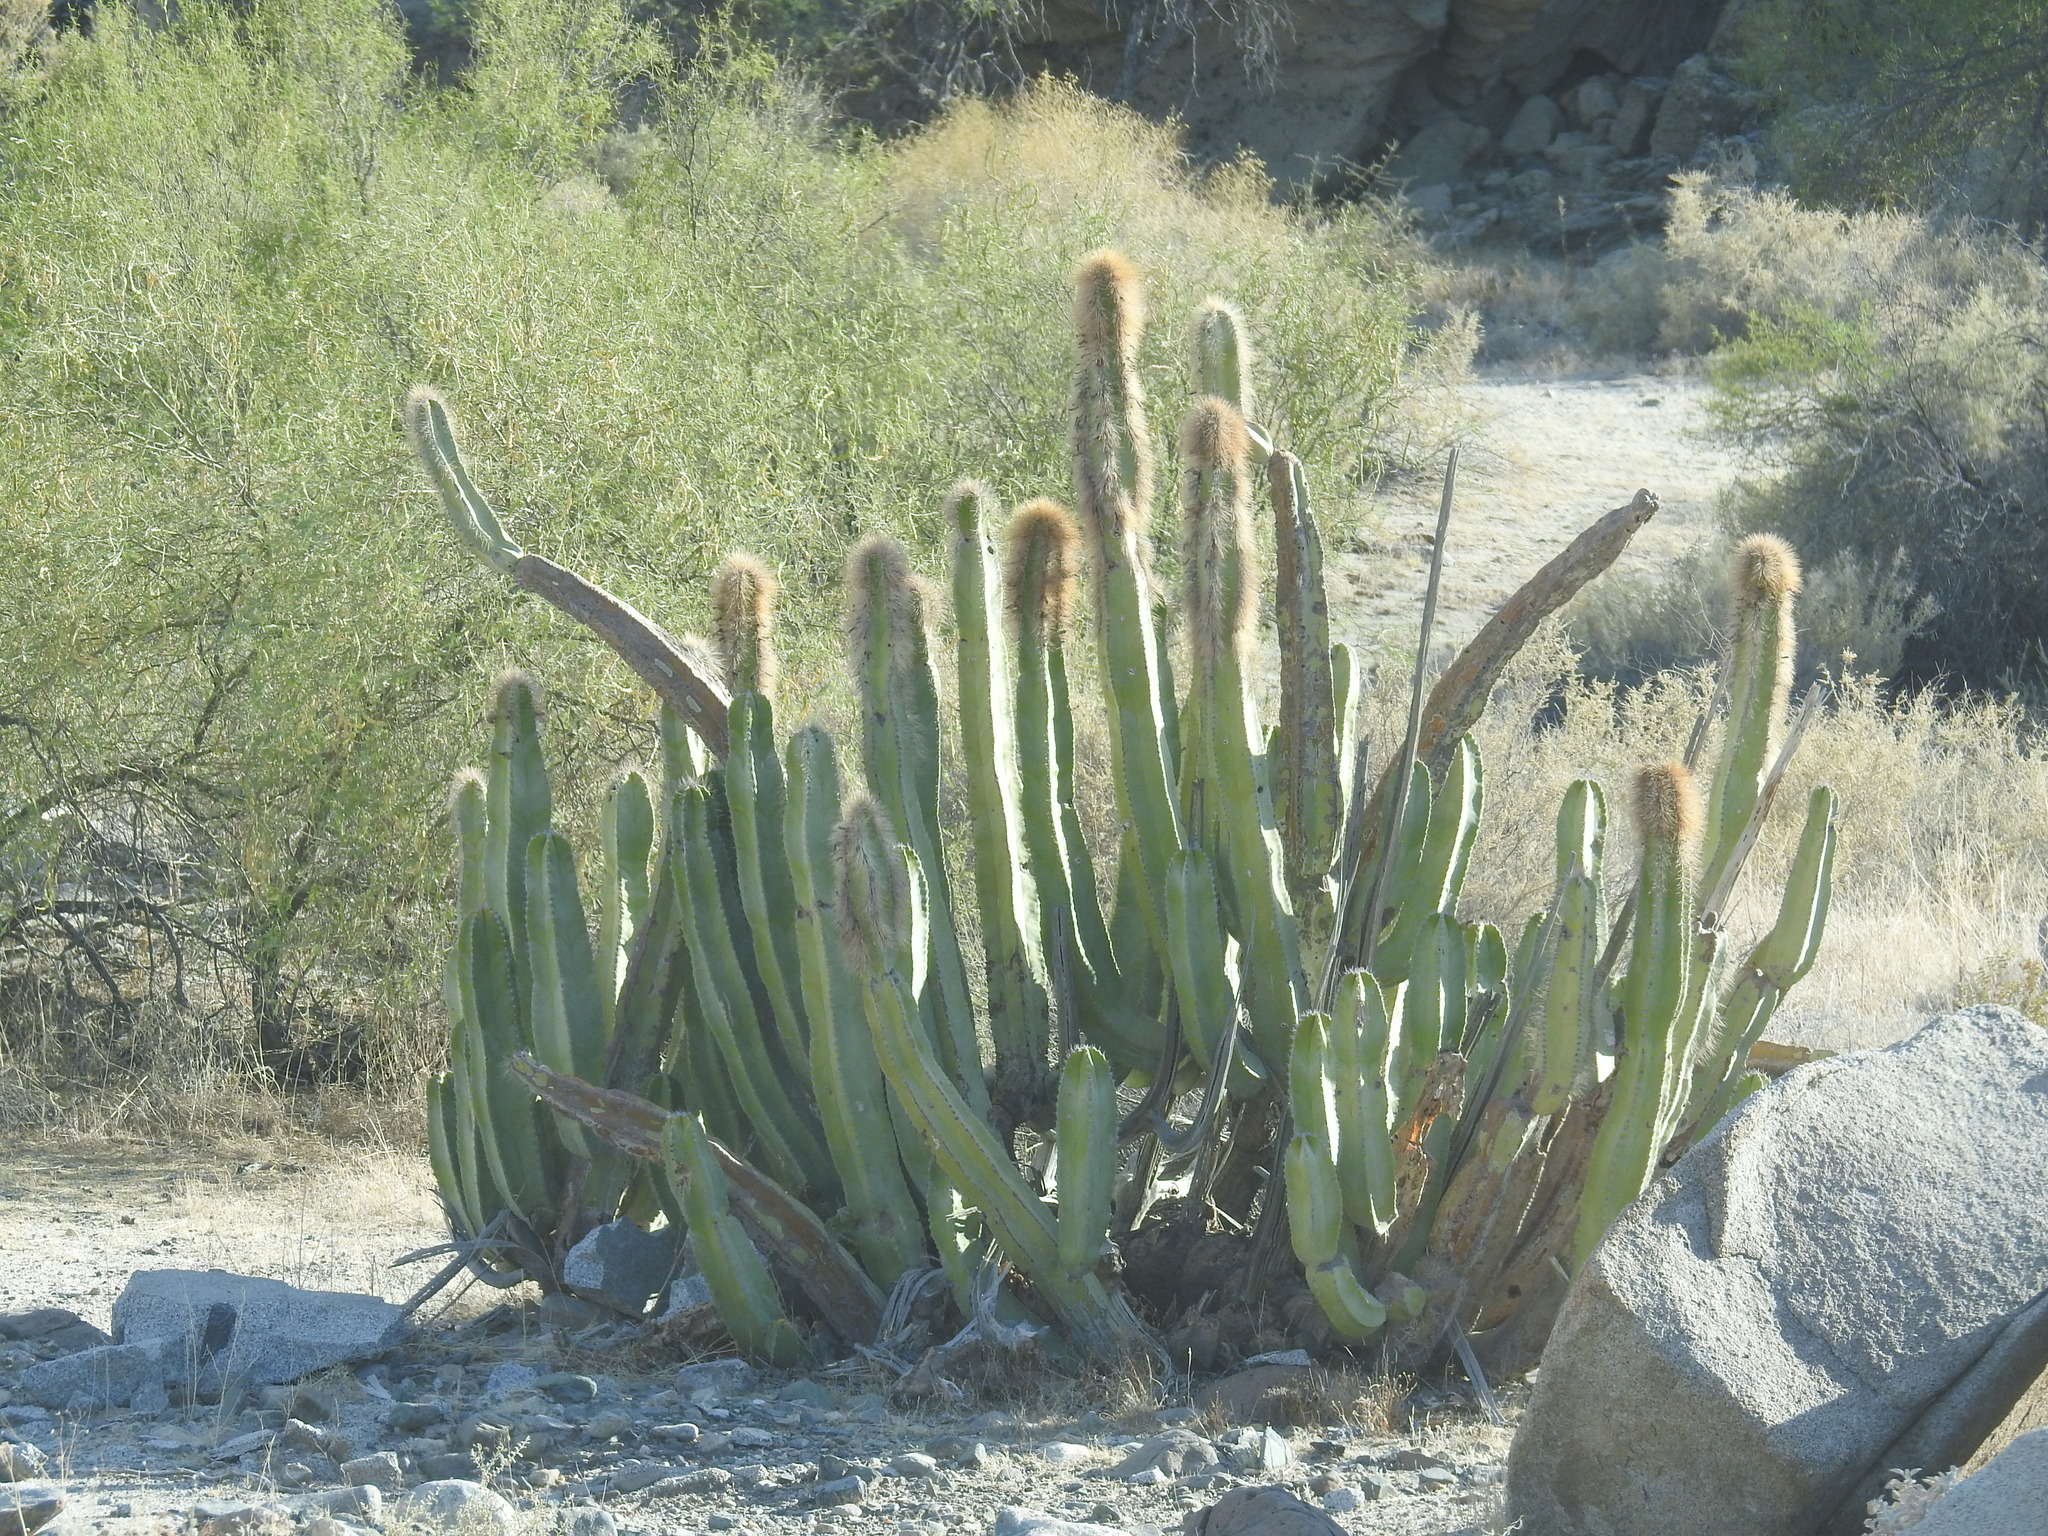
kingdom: Plantae
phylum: Tracheophyta
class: Magnoliopsida
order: Caryophyllales
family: Cactaceae
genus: Pachycereus
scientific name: Pachycereus schottii
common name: Senita cactus
